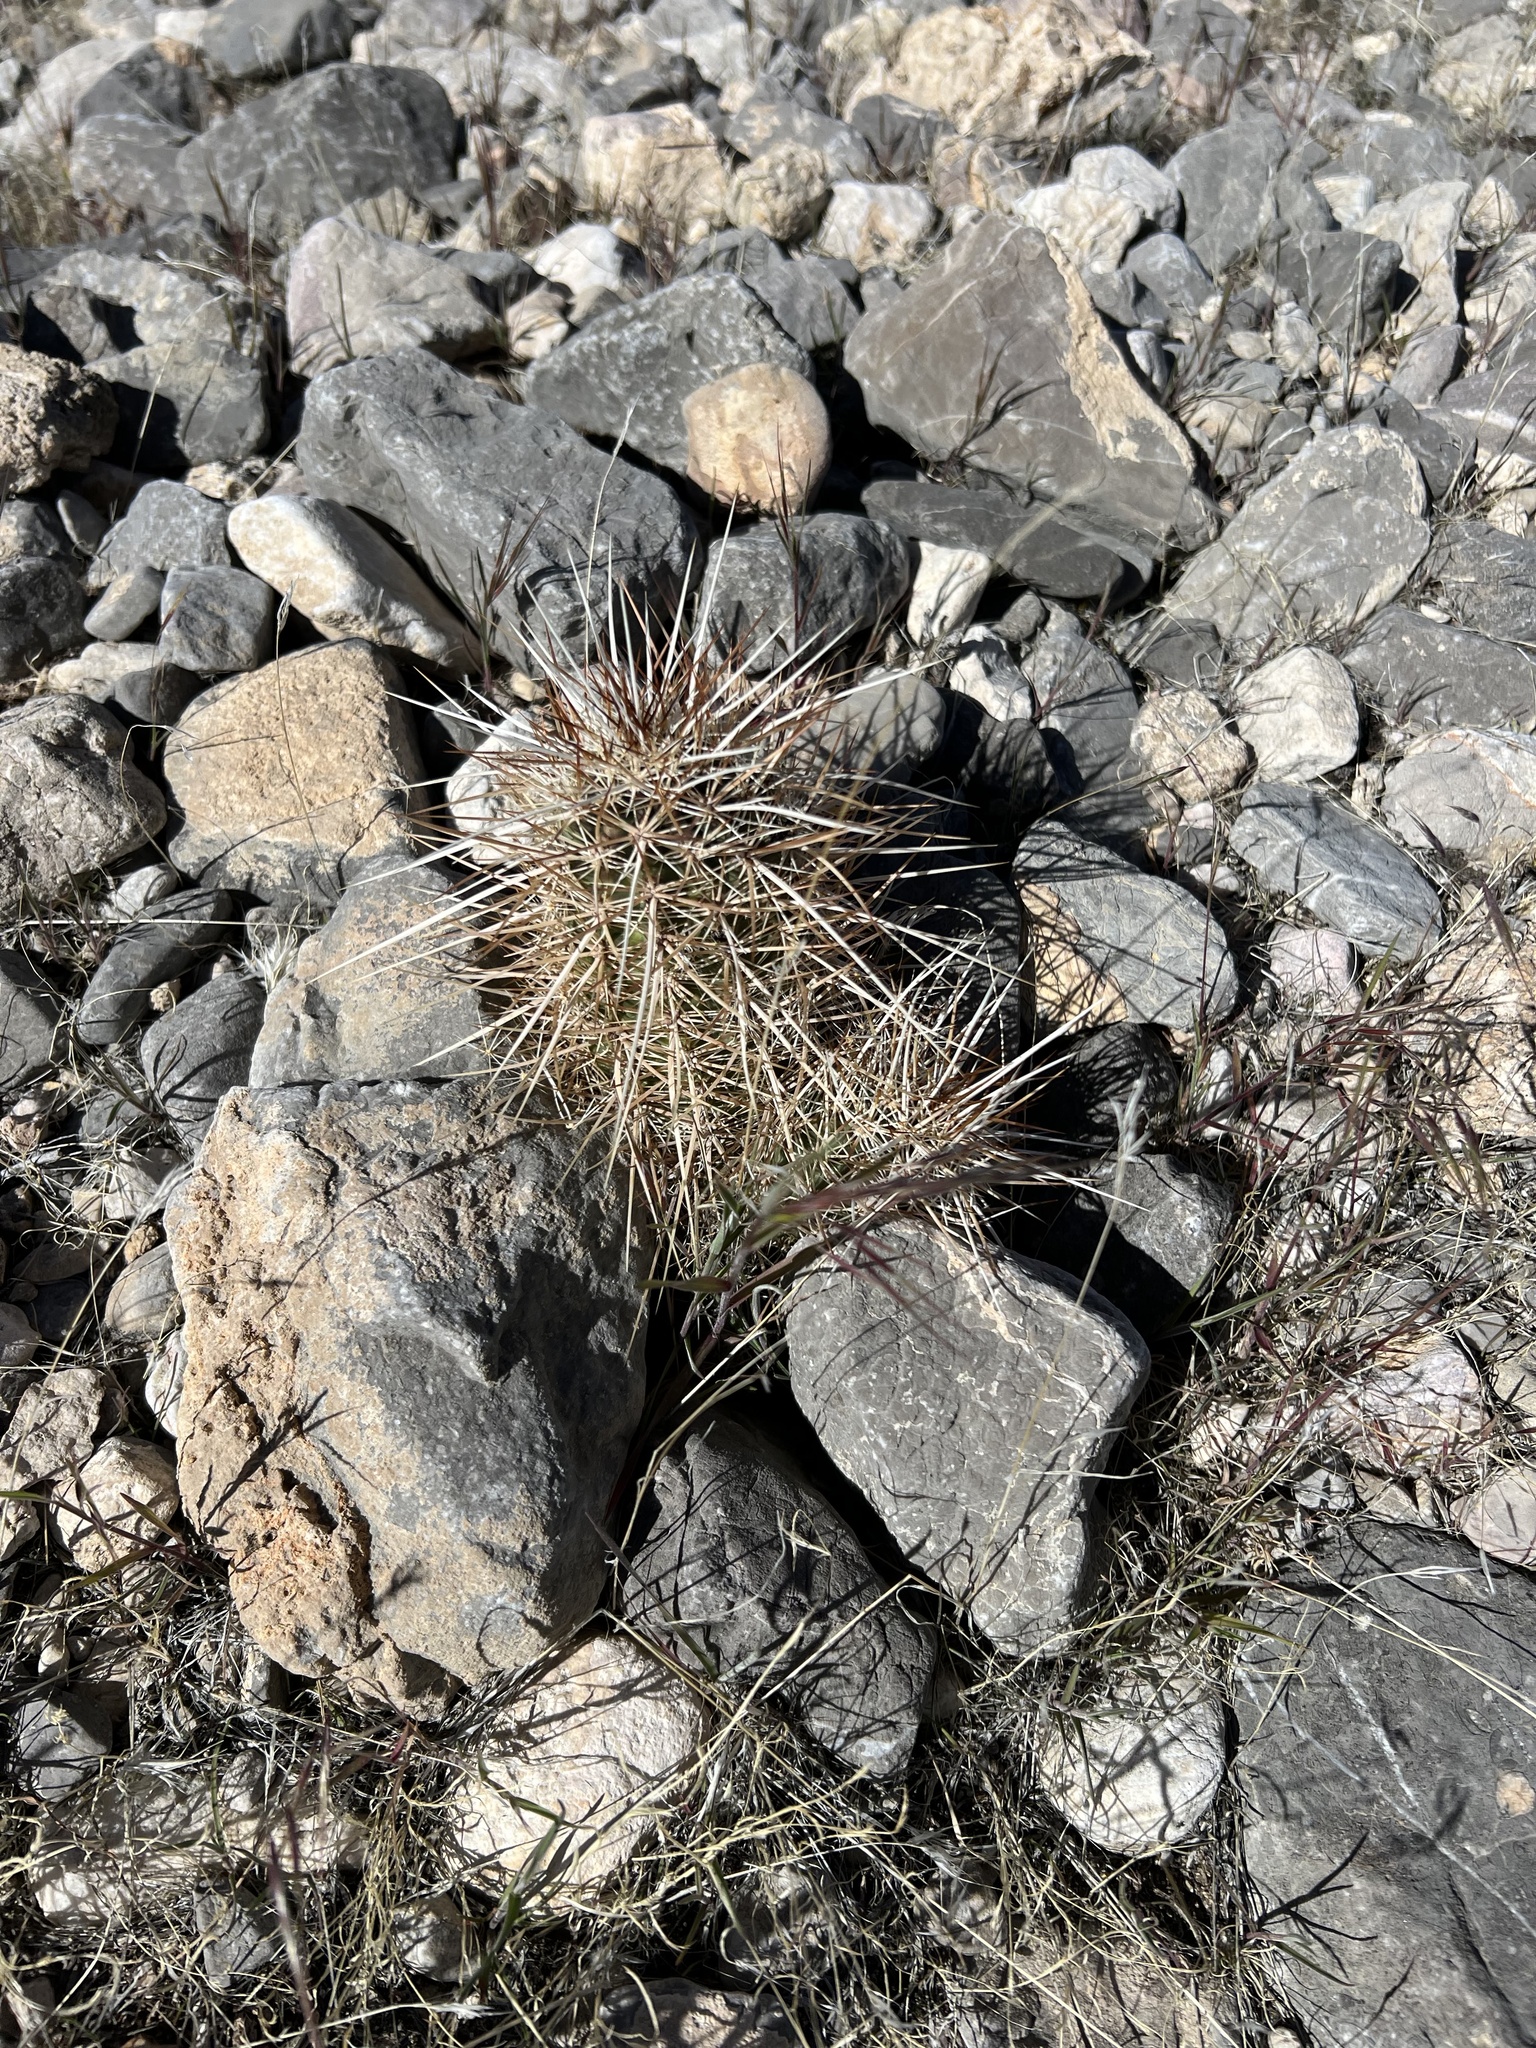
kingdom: Plantae
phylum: Tracheophyta
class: Magnoliopsida
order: Caryophyllales
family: Cactaceae
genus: Echinocereus
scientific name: Echinocereus engelmannii
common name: Engelmann's hedgehog cactus
